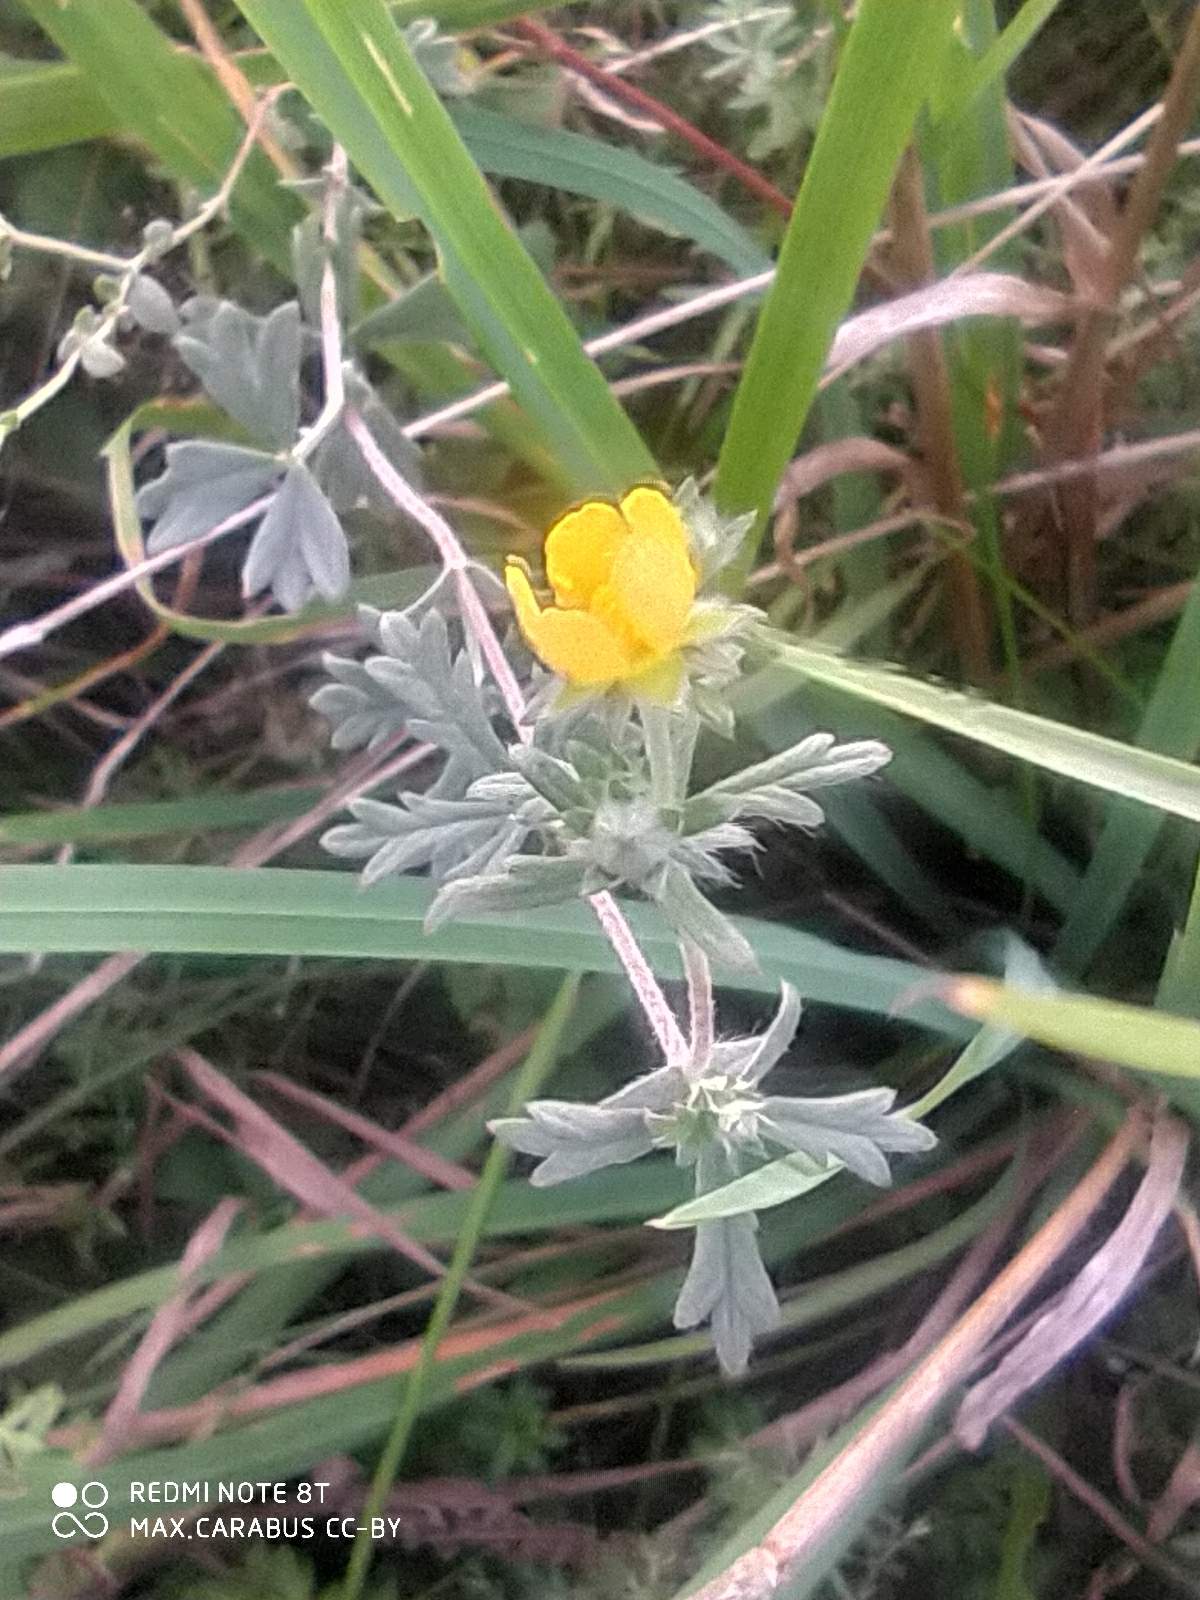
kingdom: Plantae
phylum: Tracheophyta
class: Magnoliopsida
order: Rosales
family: Rosaceae
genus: Potentilla
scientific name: Potentilla argentea
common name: Hoary cinquefoil
